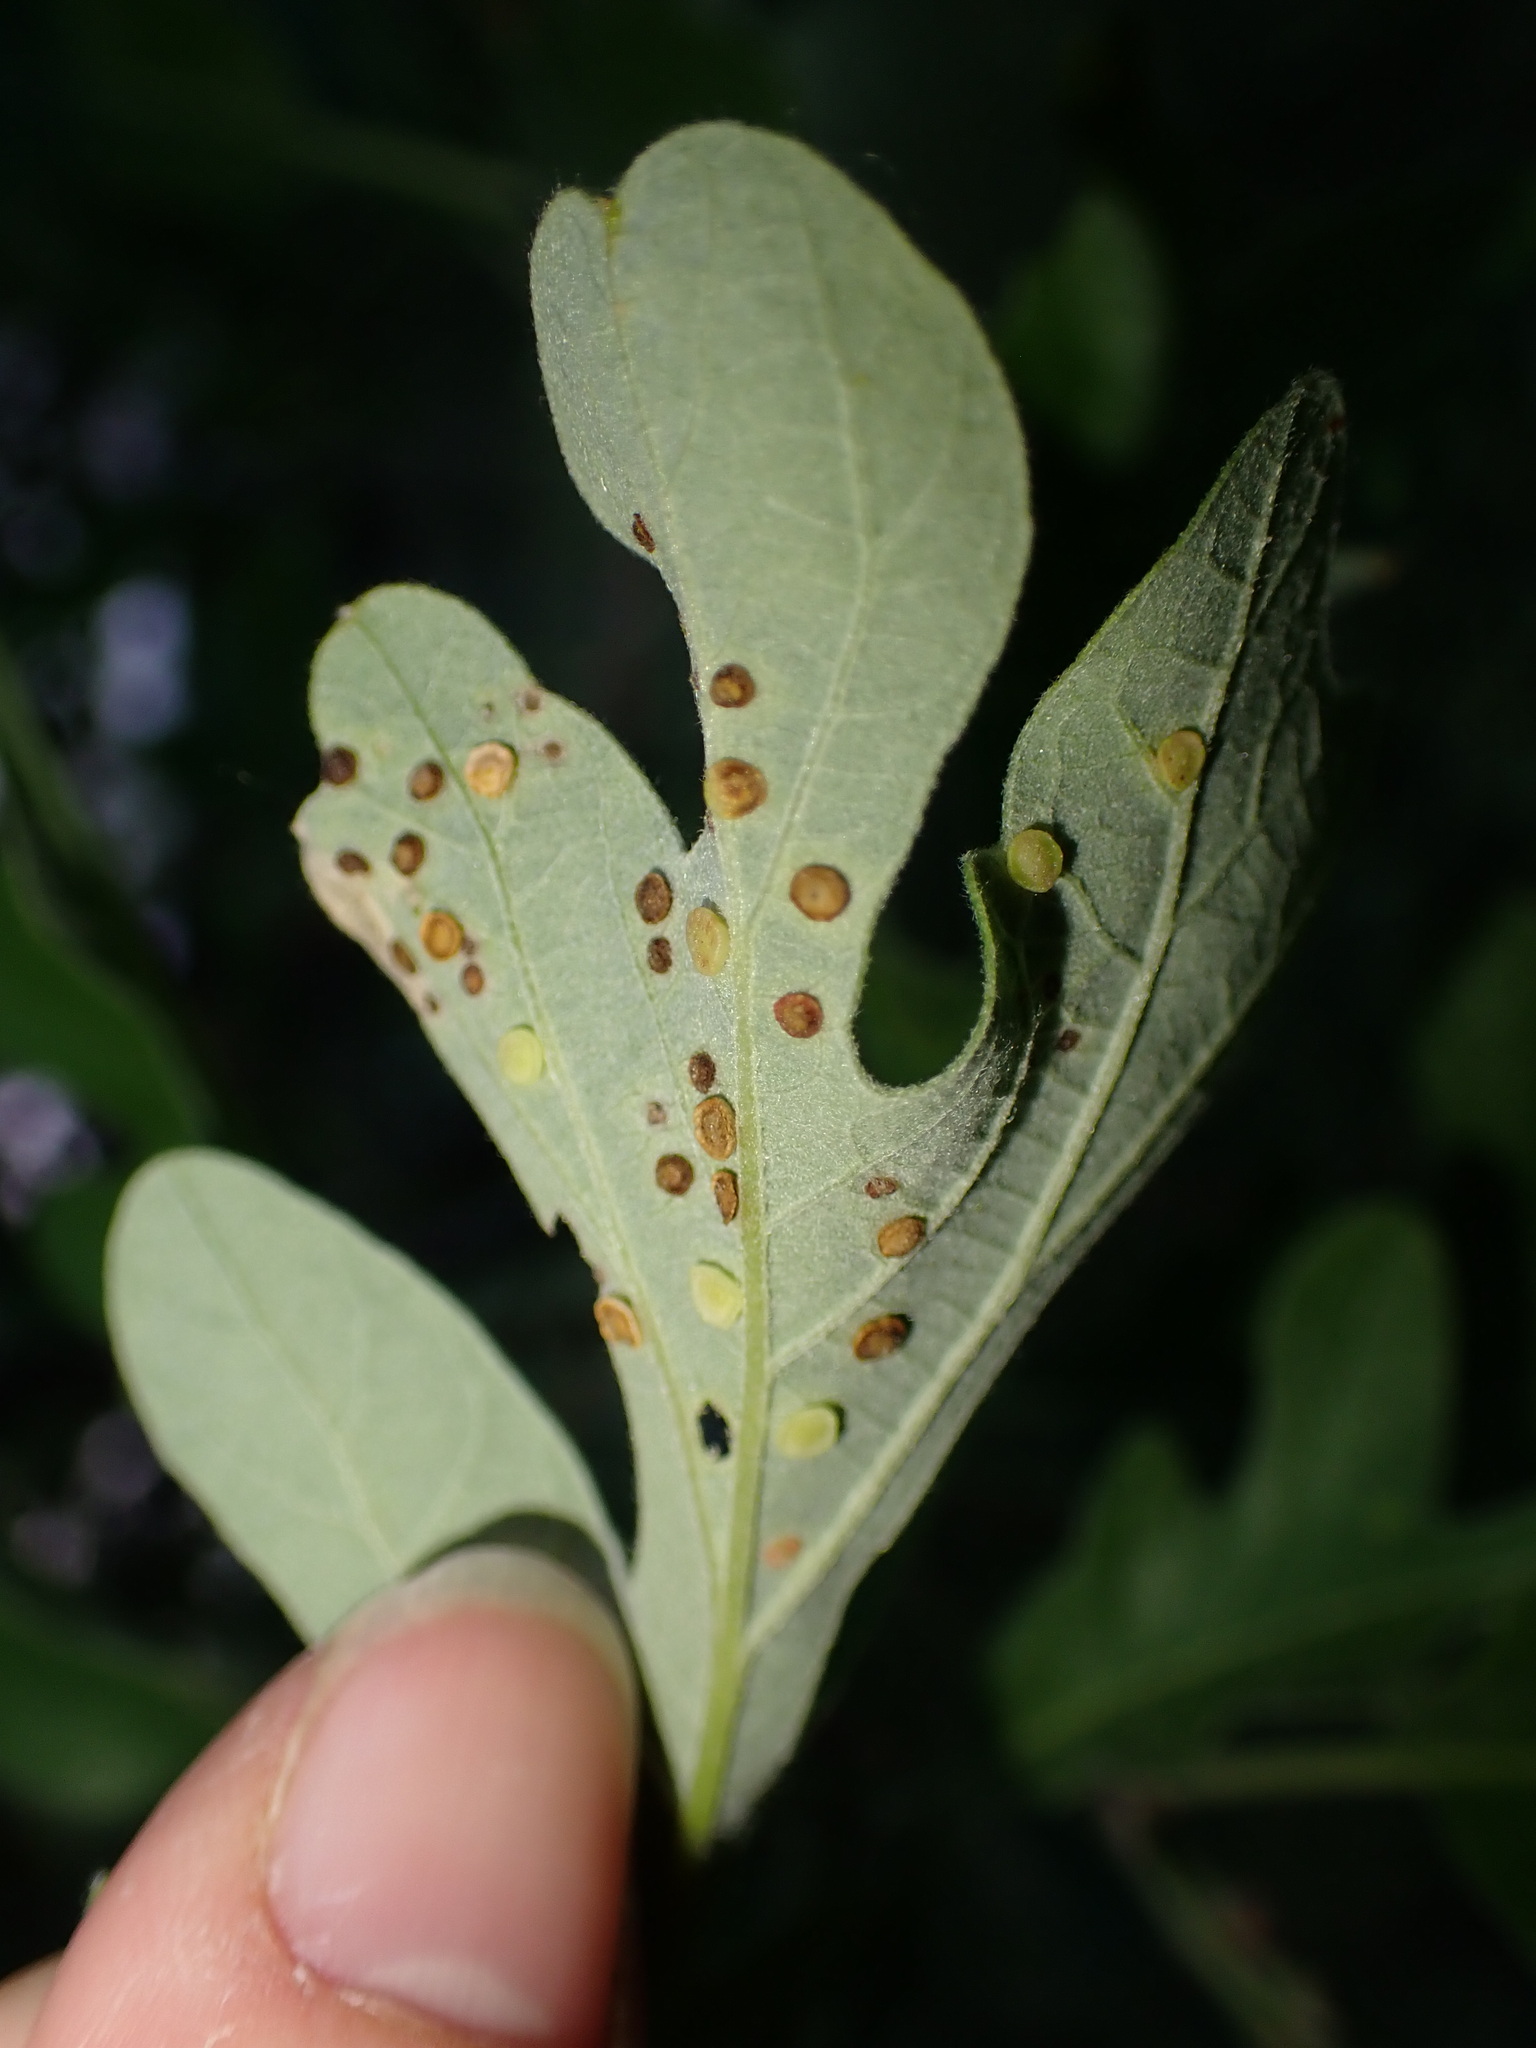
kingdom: Animalia
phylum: Arthropoda
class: Insecta
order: Hymenoptera
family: Cynipidae
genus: Neuroterus
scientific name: Neuroterus
